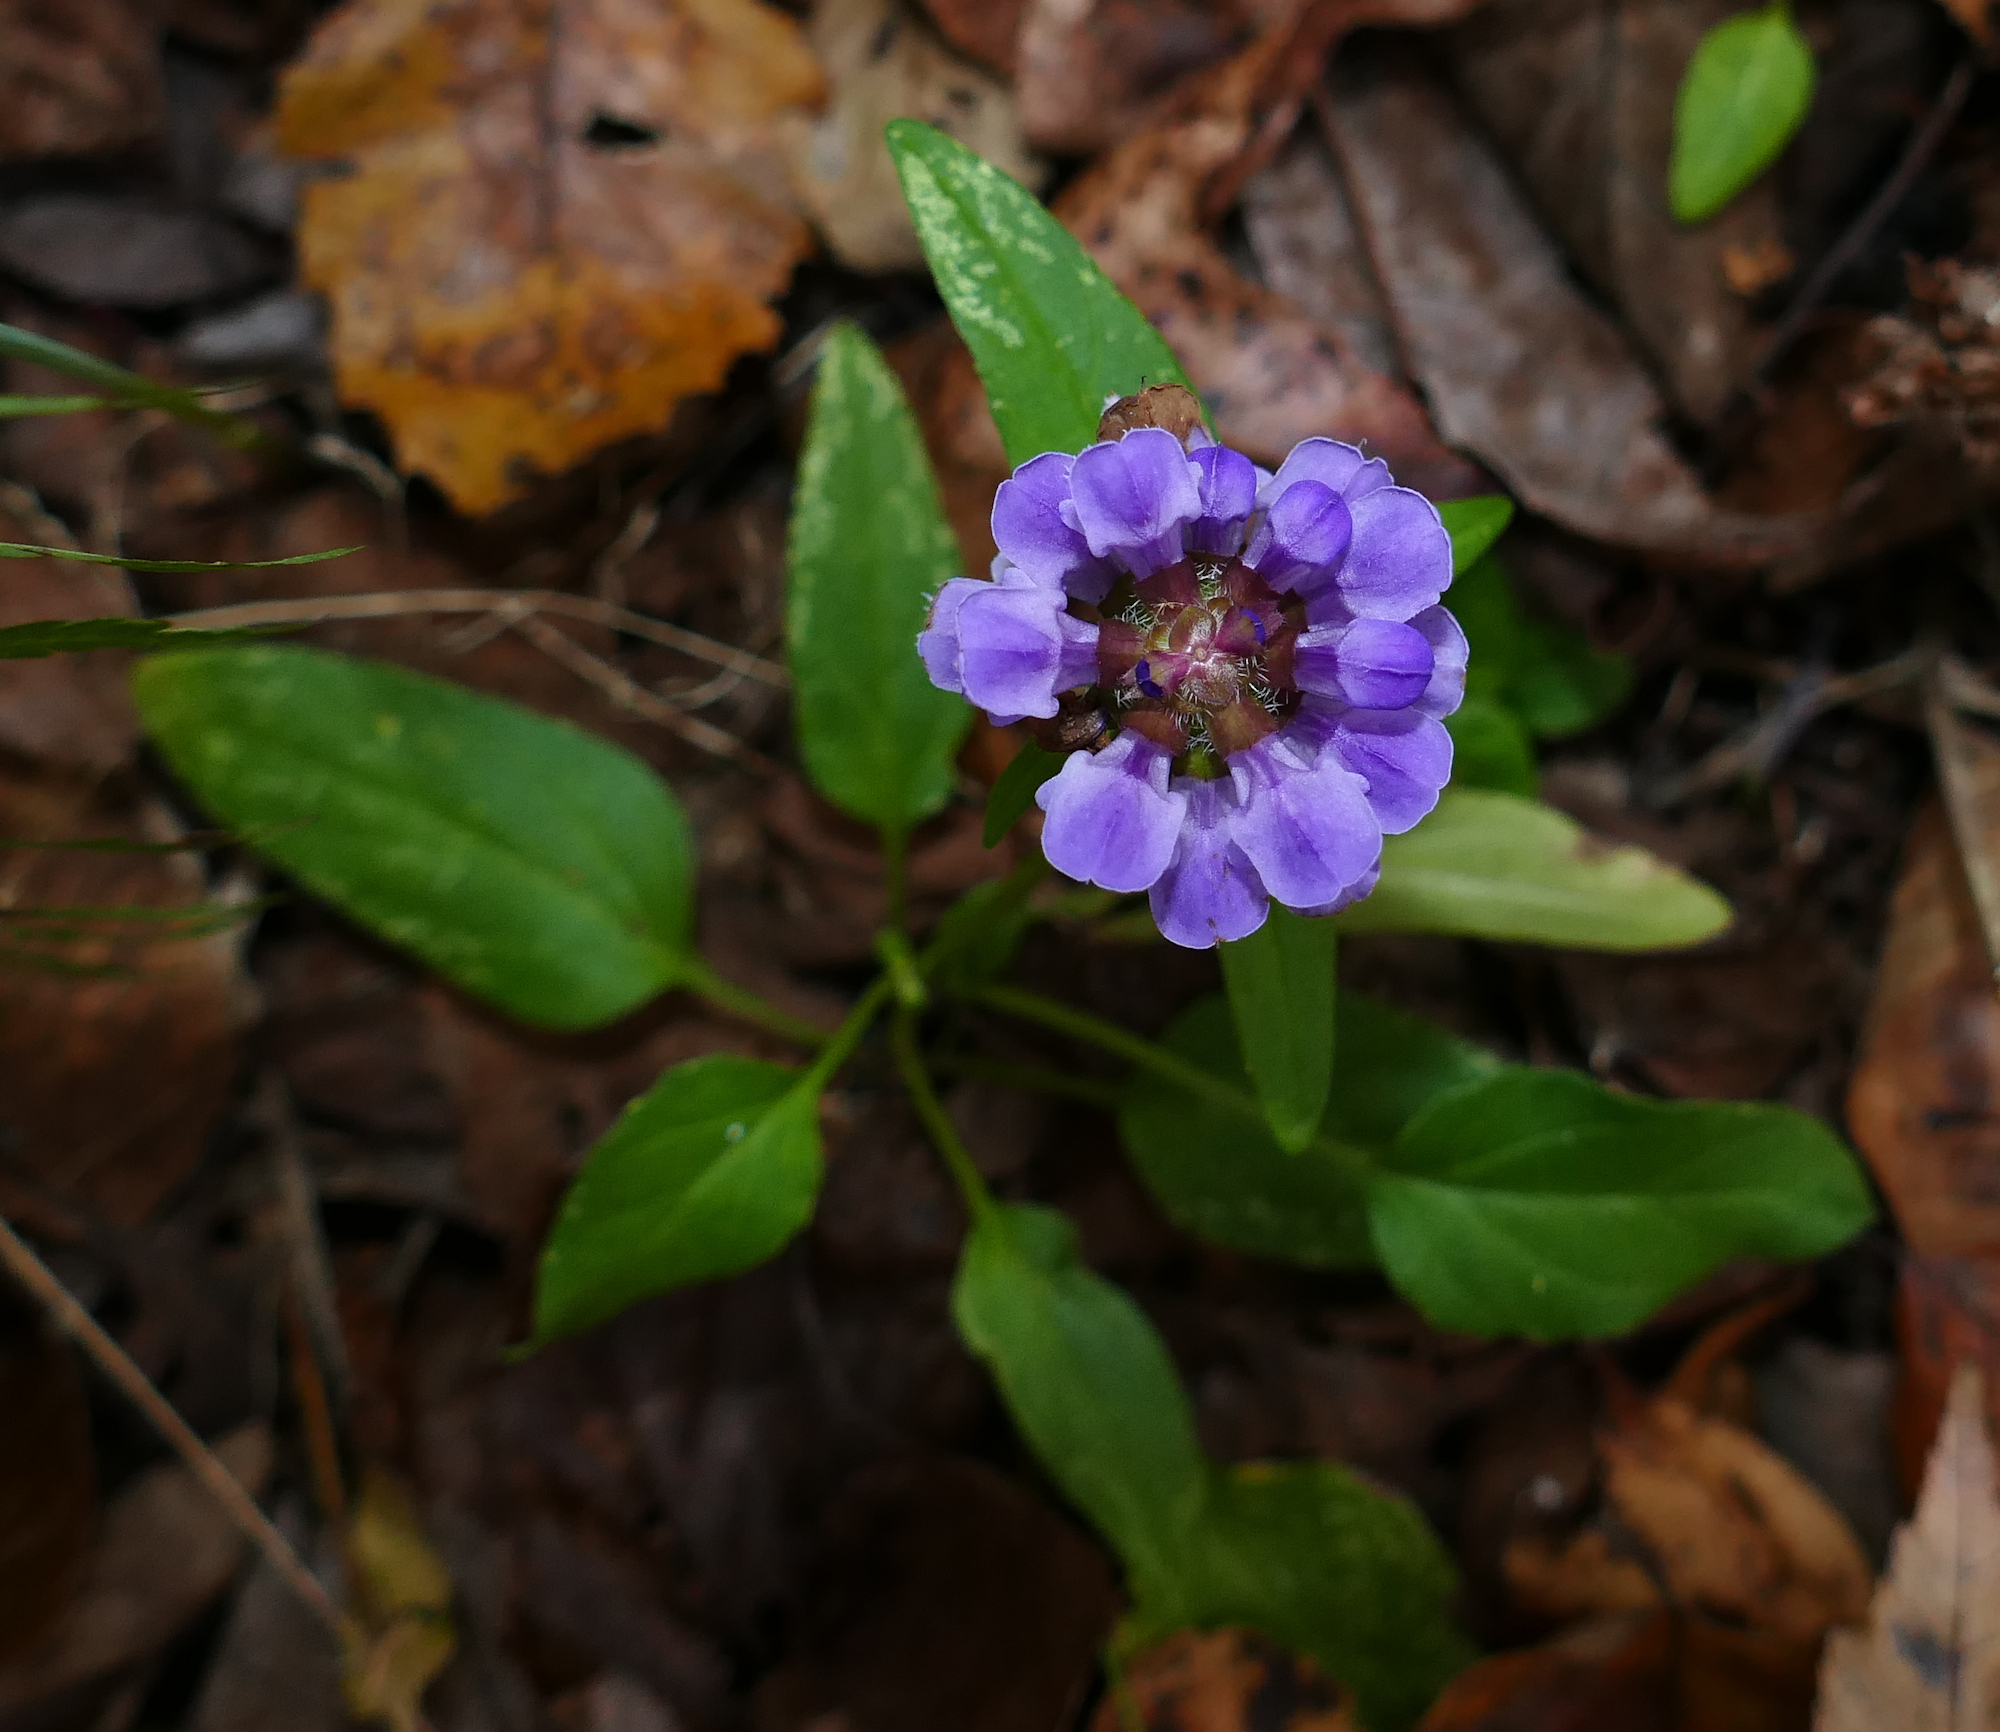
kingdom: Plantae
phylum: Tracheophyta
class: Magnoliopsida
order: Lamiales
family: Lamiaceae
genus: Prunella
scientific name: Prunella vulgaris
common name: Heal-all
